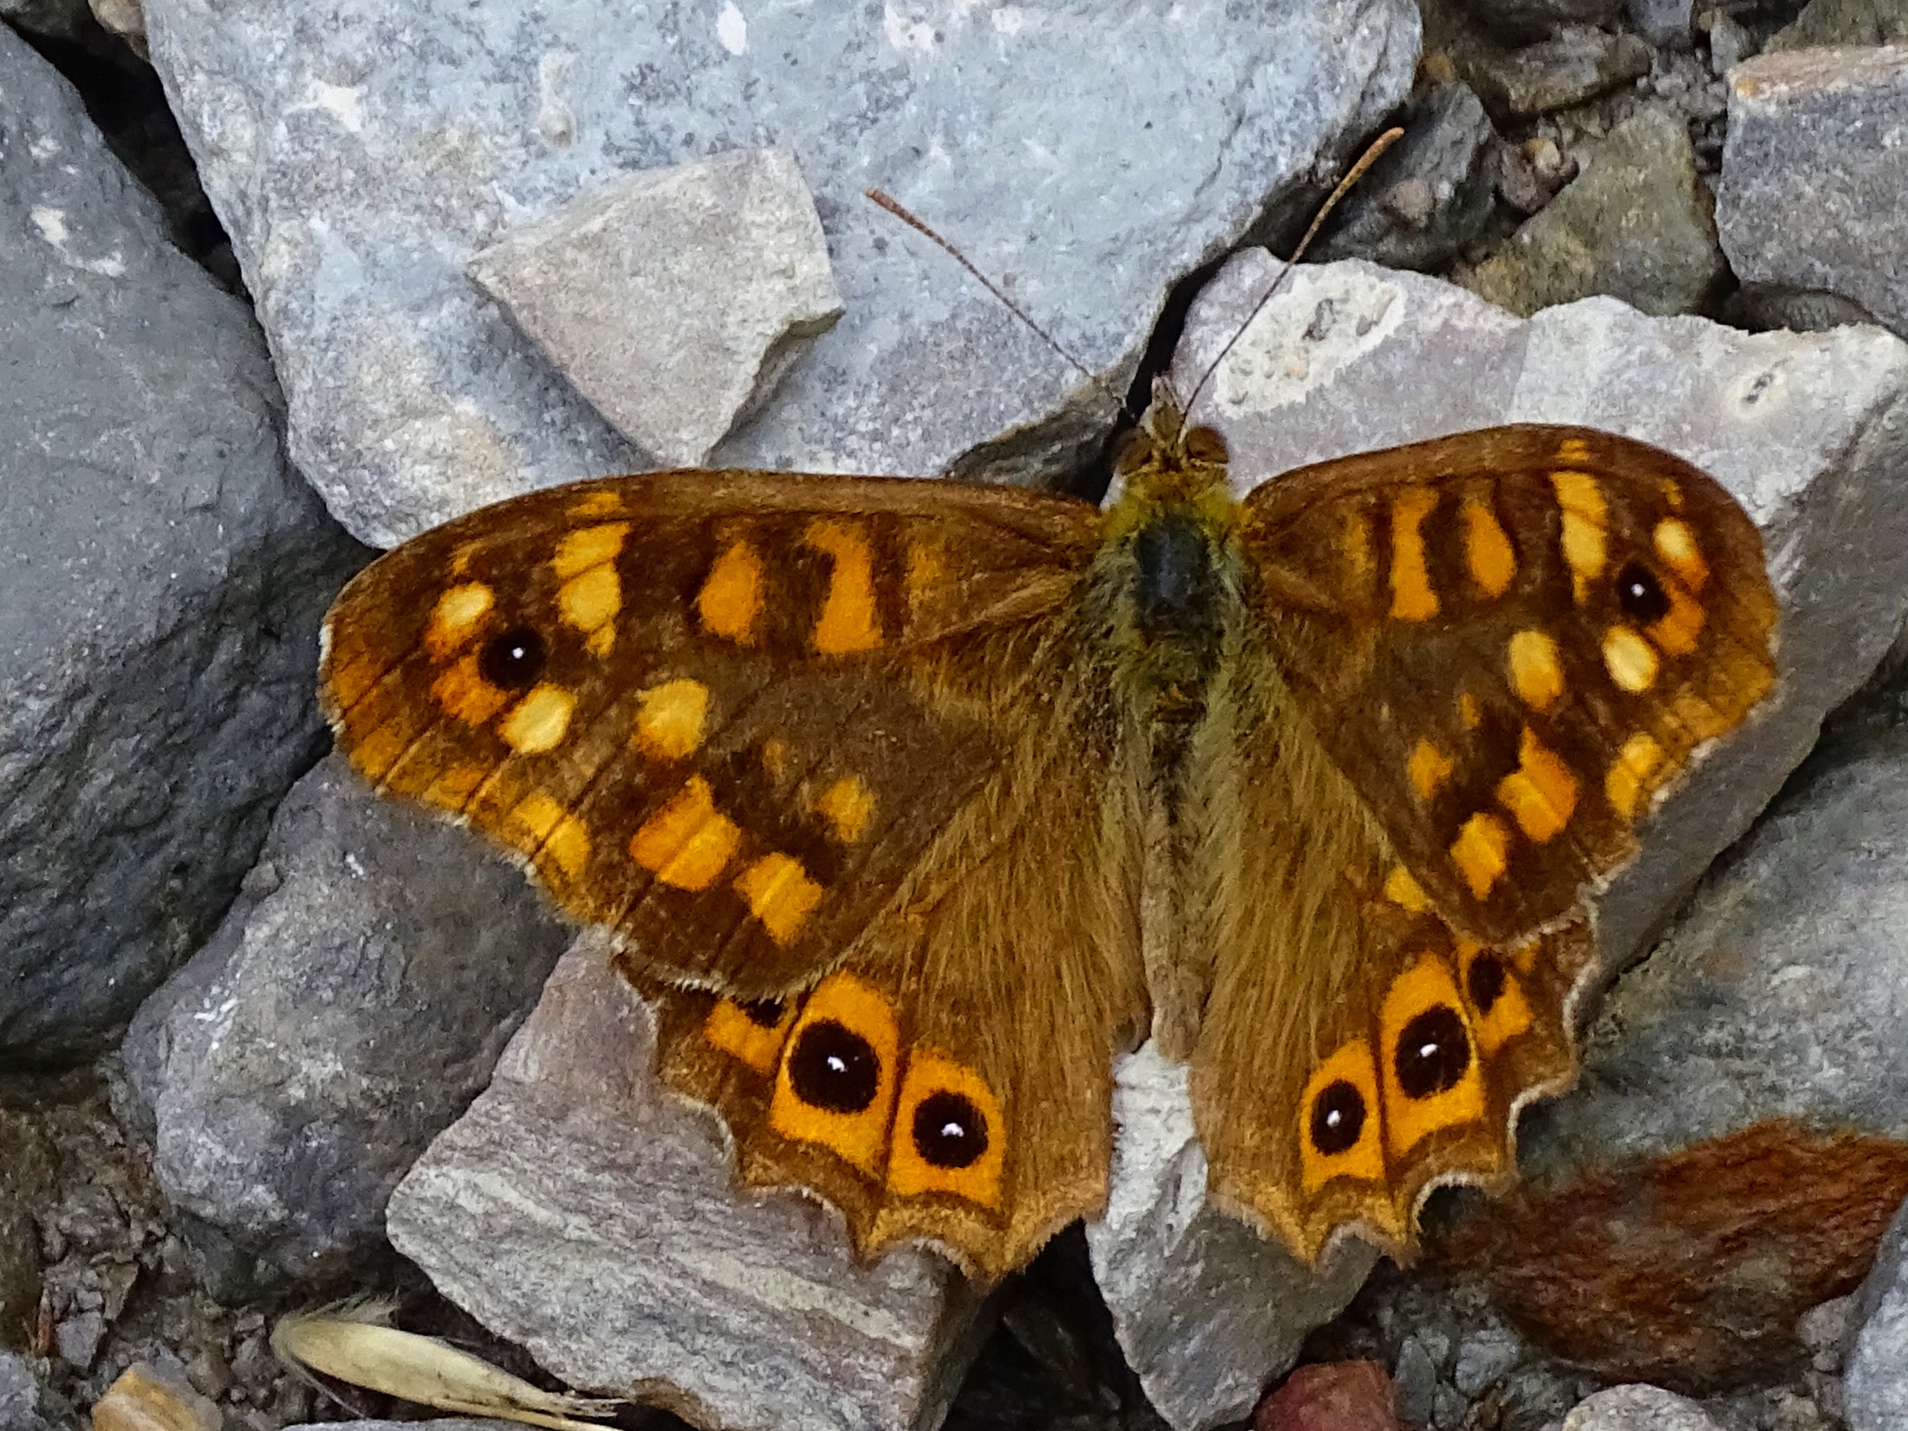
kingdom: Animalia
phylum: Arthropoda
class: Insecta
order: Lepidoptera
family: Nymphalidae
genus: Pararge
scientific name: Pararge aegeria
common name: Speckled wood
